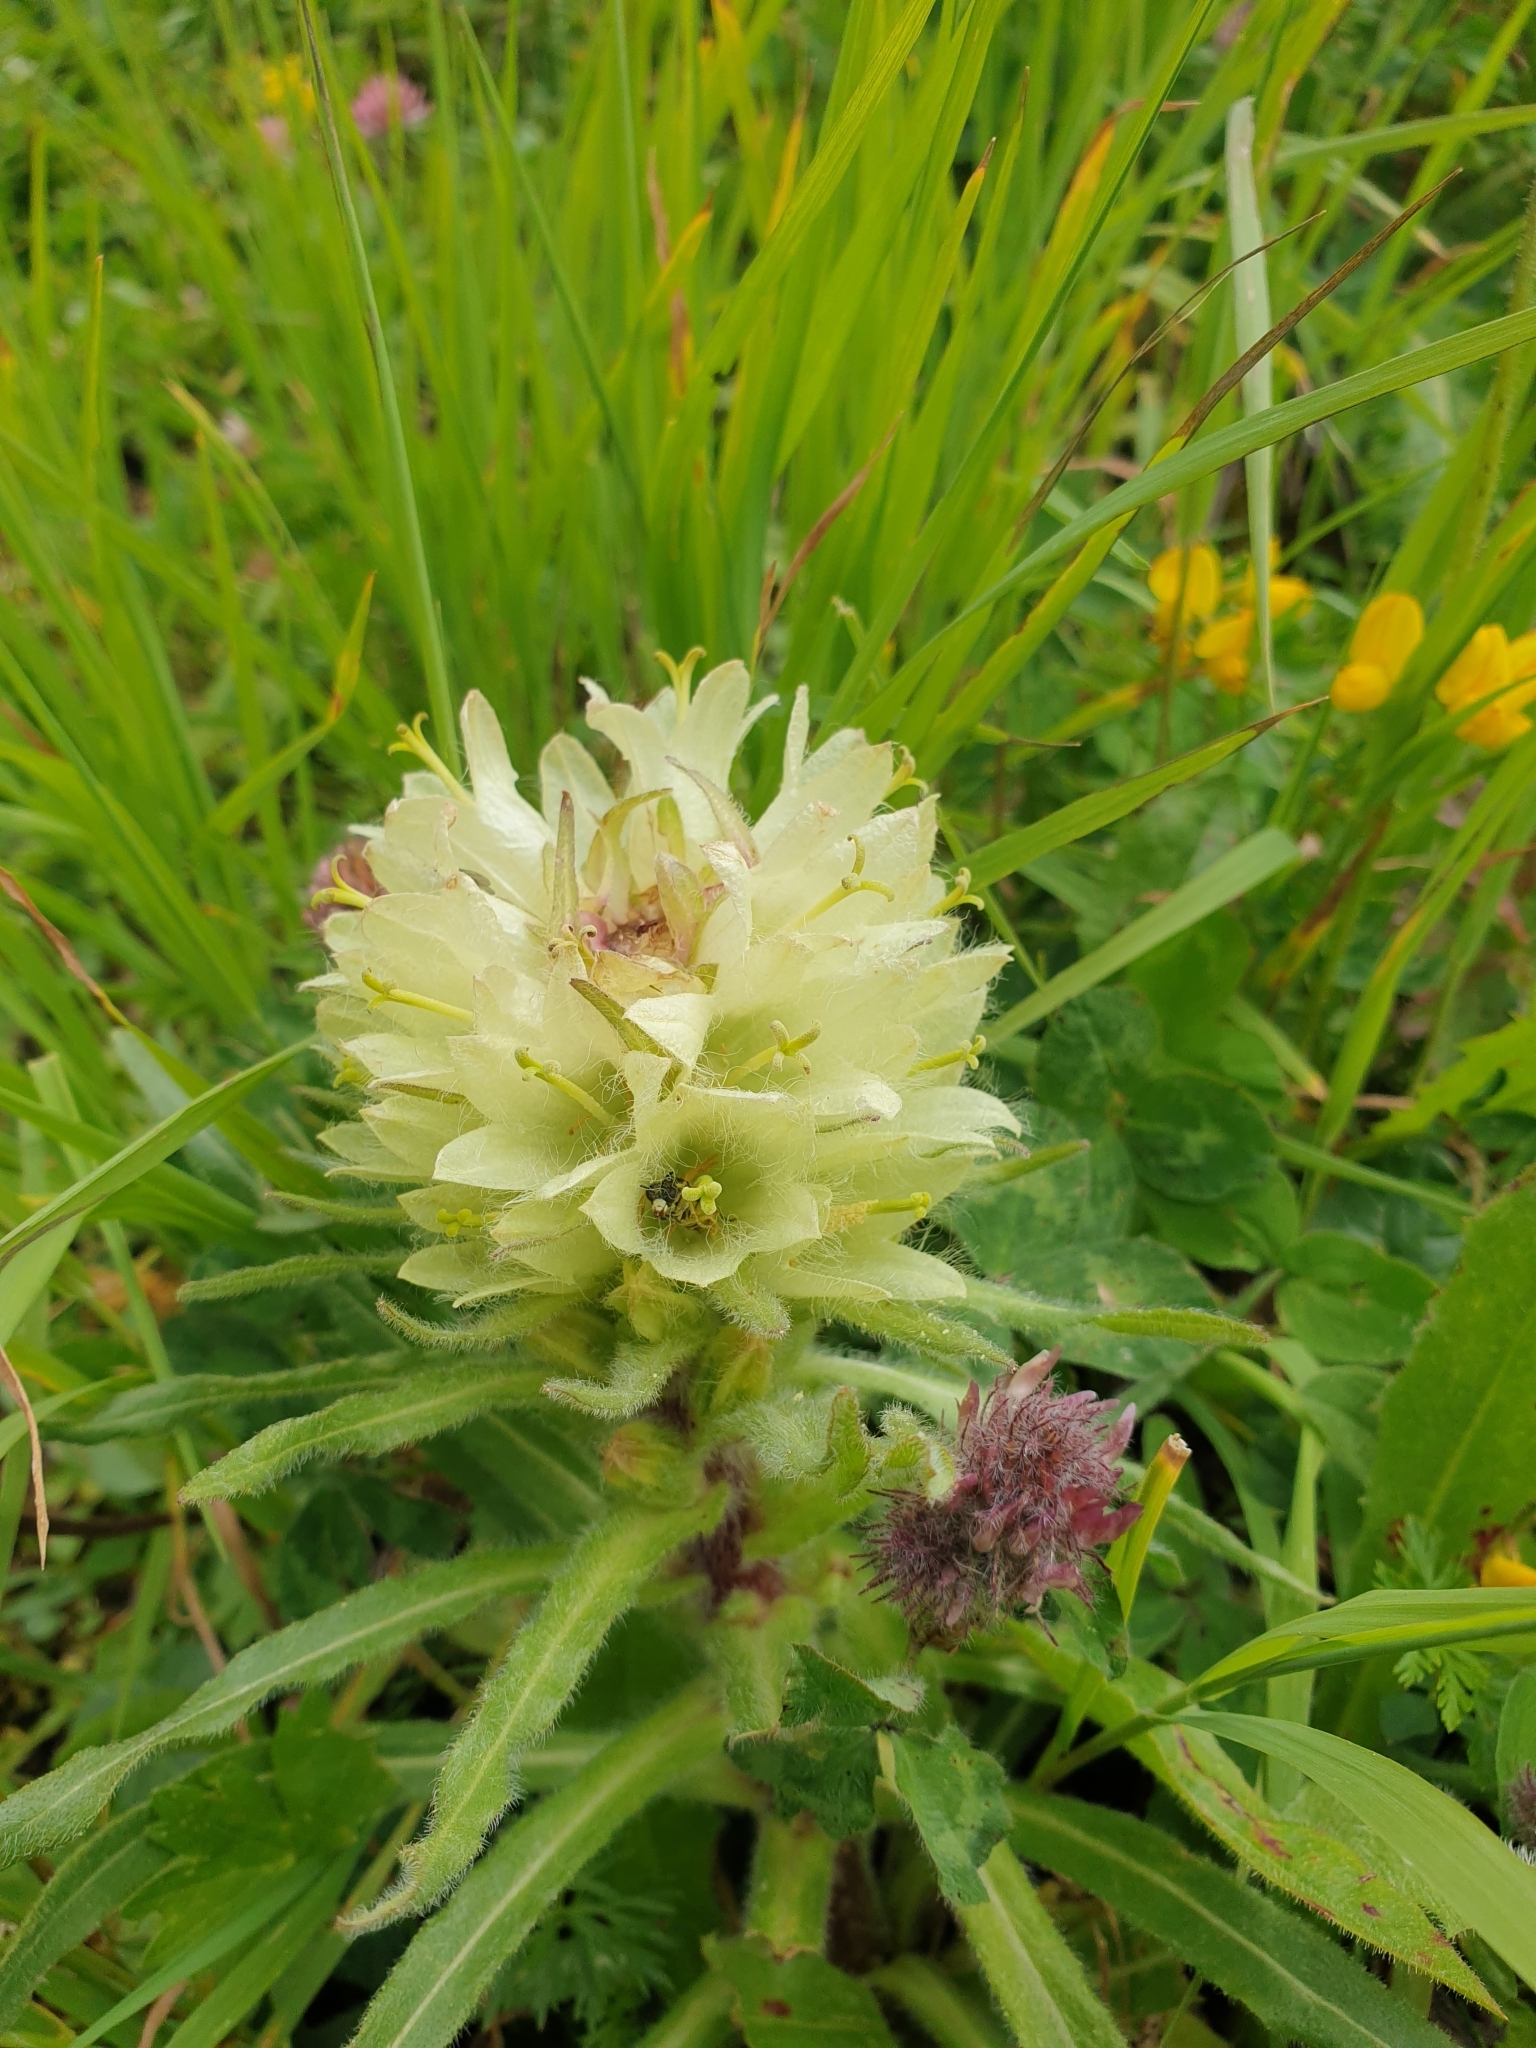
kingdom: Plantae
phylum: Tracheophyta
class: Magnoliopsida
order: Asterales
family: Campanulaceae
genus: Campanula
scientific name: Campanula thyrsoides
